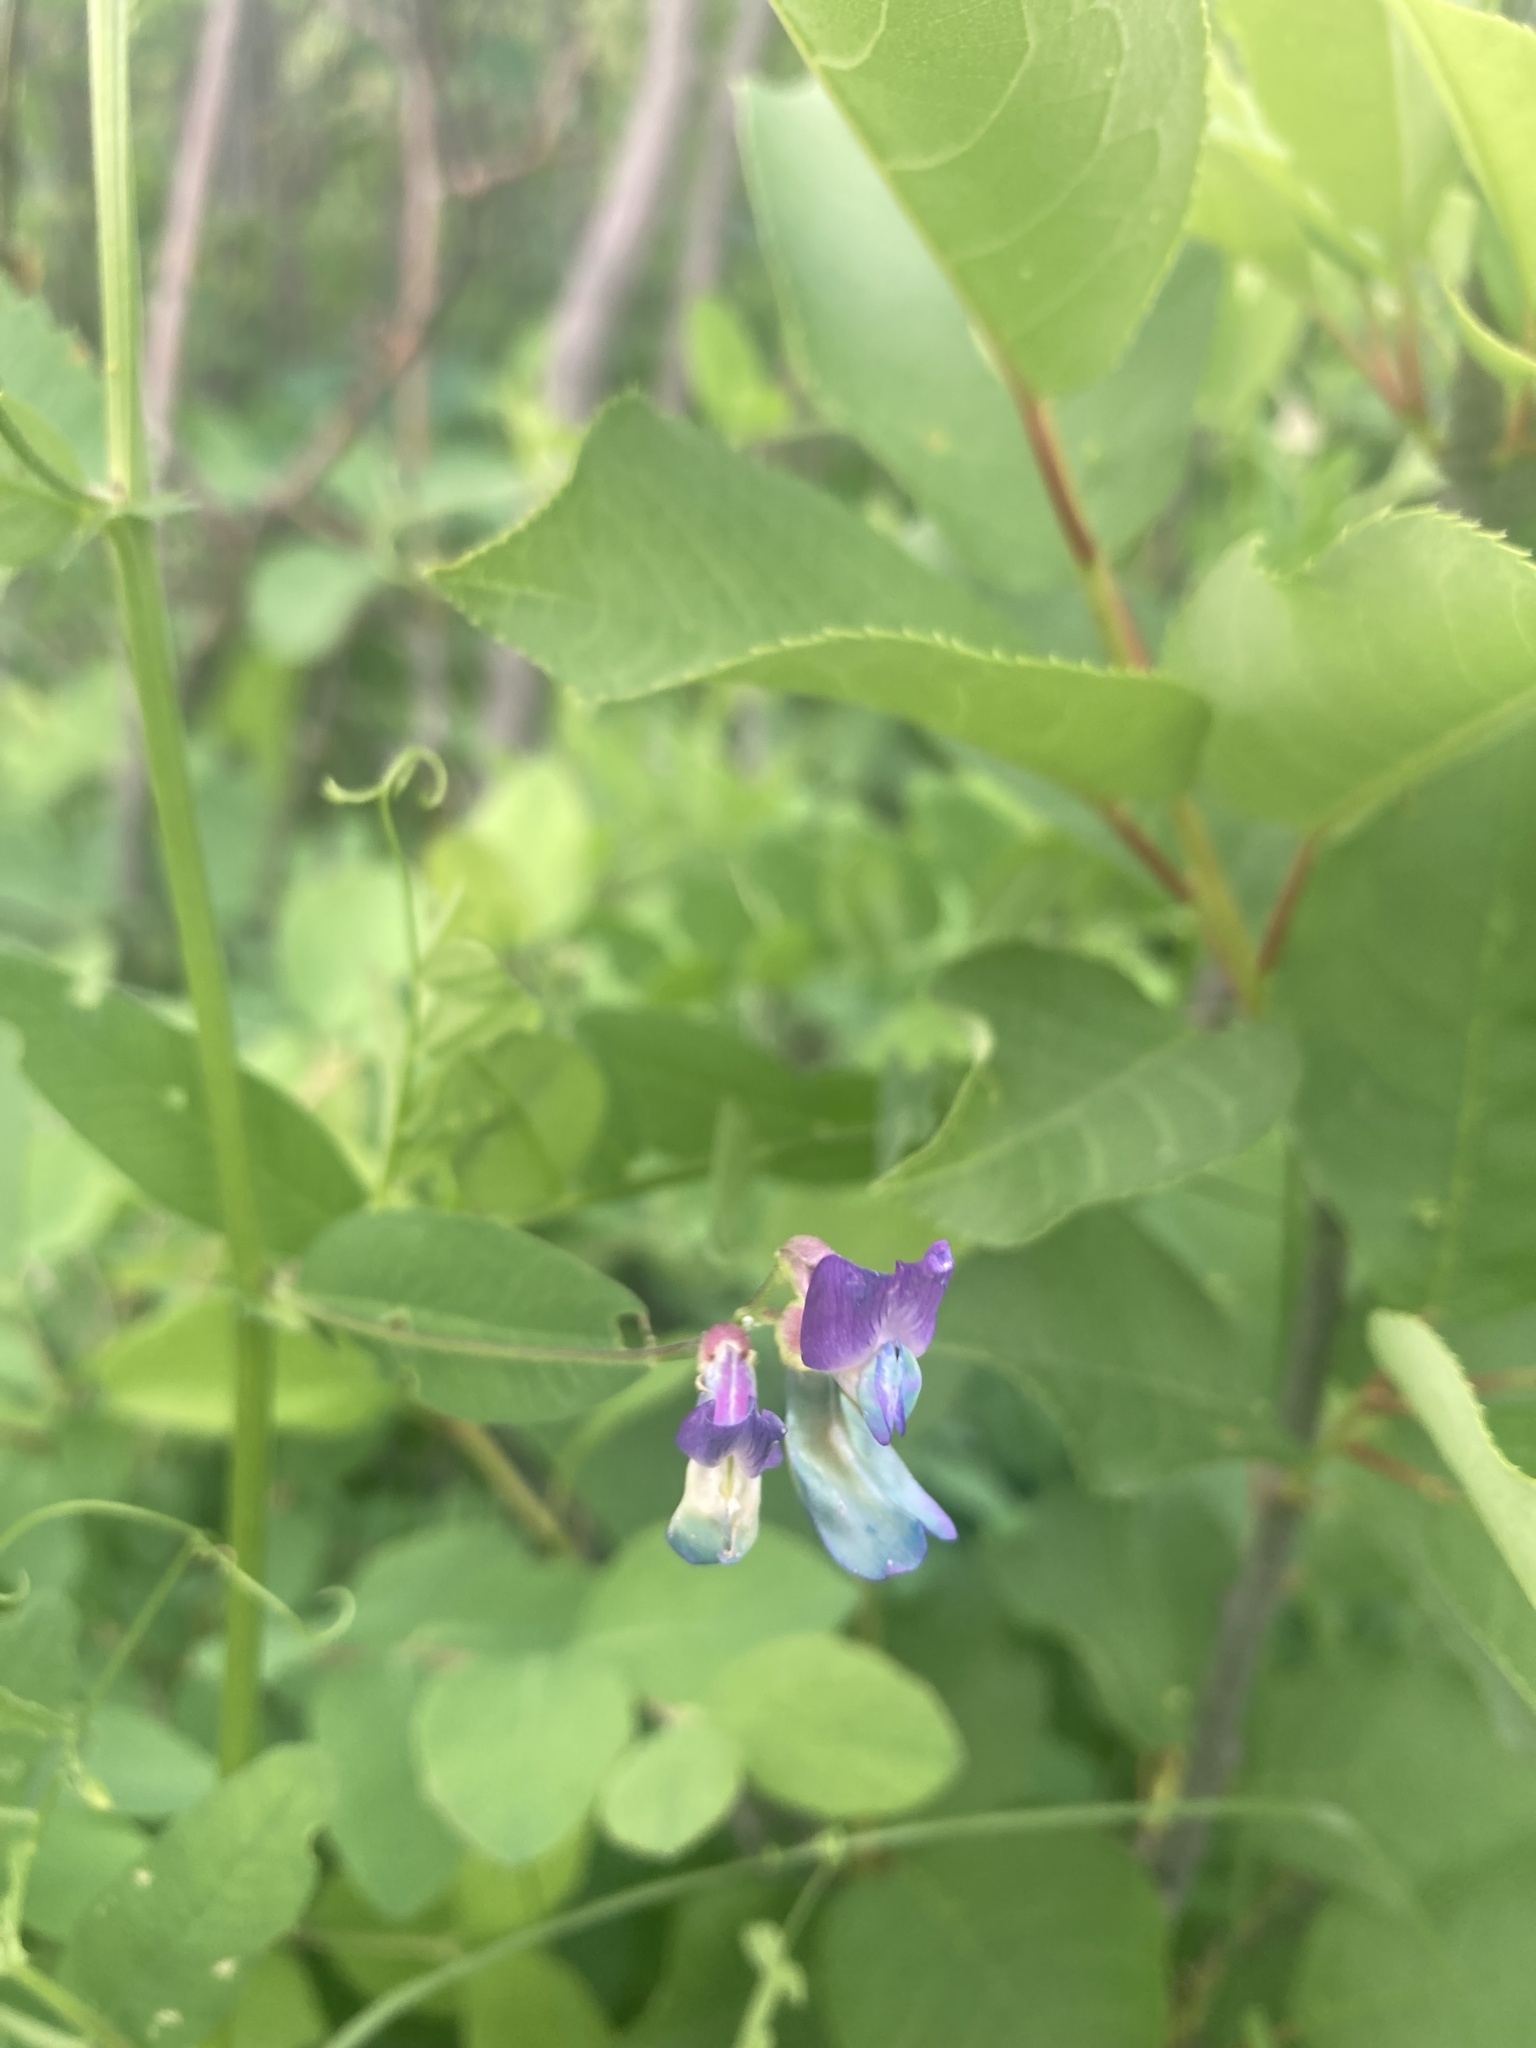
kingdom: Plantae
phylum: Tracheophyta
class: Magnoliopsida
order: Fabales
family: Fabaceae
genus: Vicia
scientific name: Vicia americana
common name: American vetch
